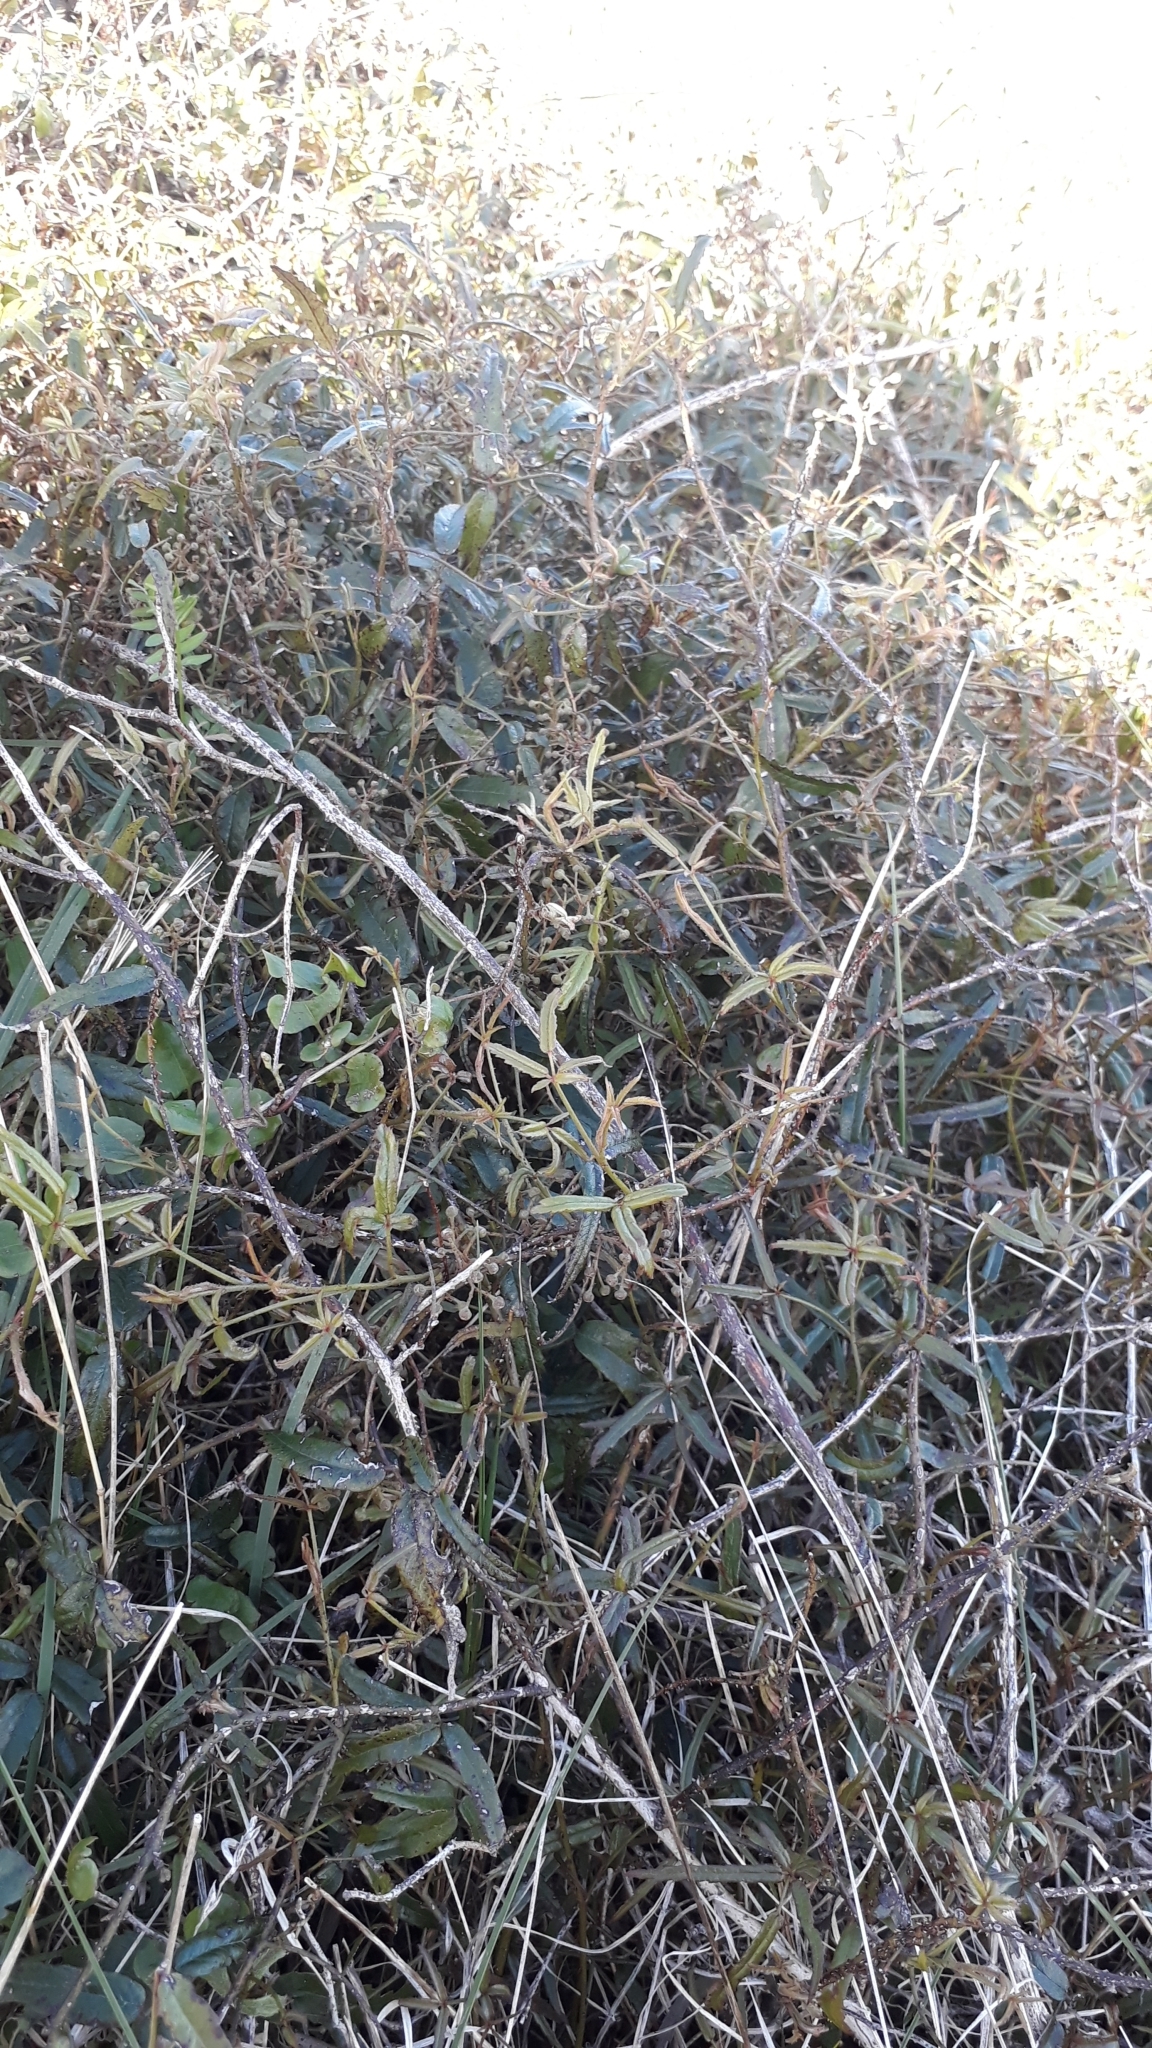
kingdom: Plantae
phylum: Tracheophyta
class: Magnoliopsida
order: Rosales
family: Rosaceae
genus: Rubus
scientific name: Rubus schmidelioides
